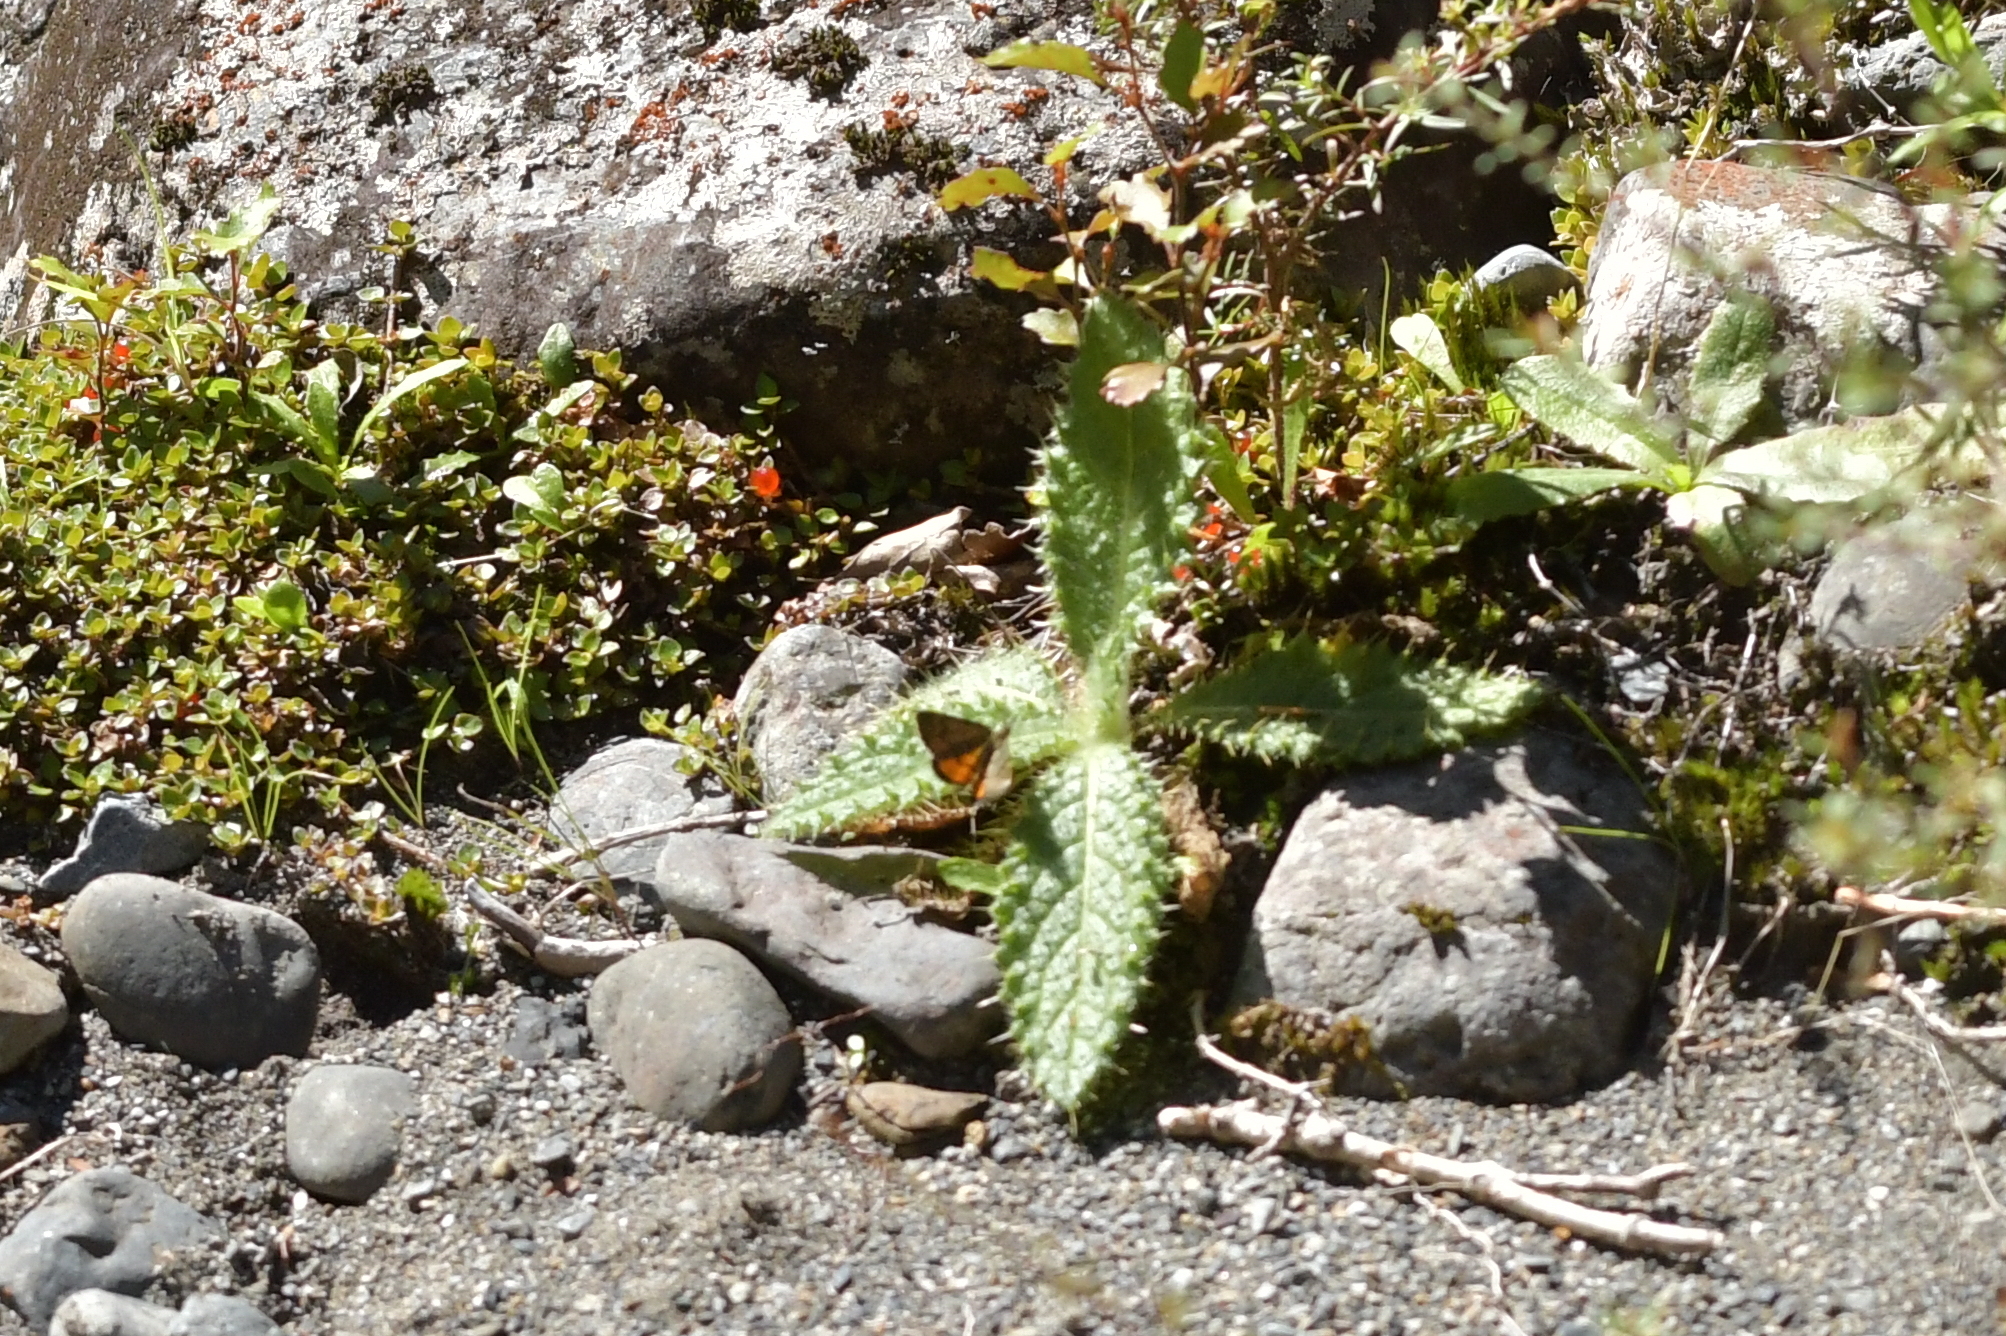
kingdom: Animalia
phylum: Arthropoda
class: Insecta
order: Lepidoptera
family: Geometridae
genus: Paranotoreas
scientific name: Paranotoreas brephosata
